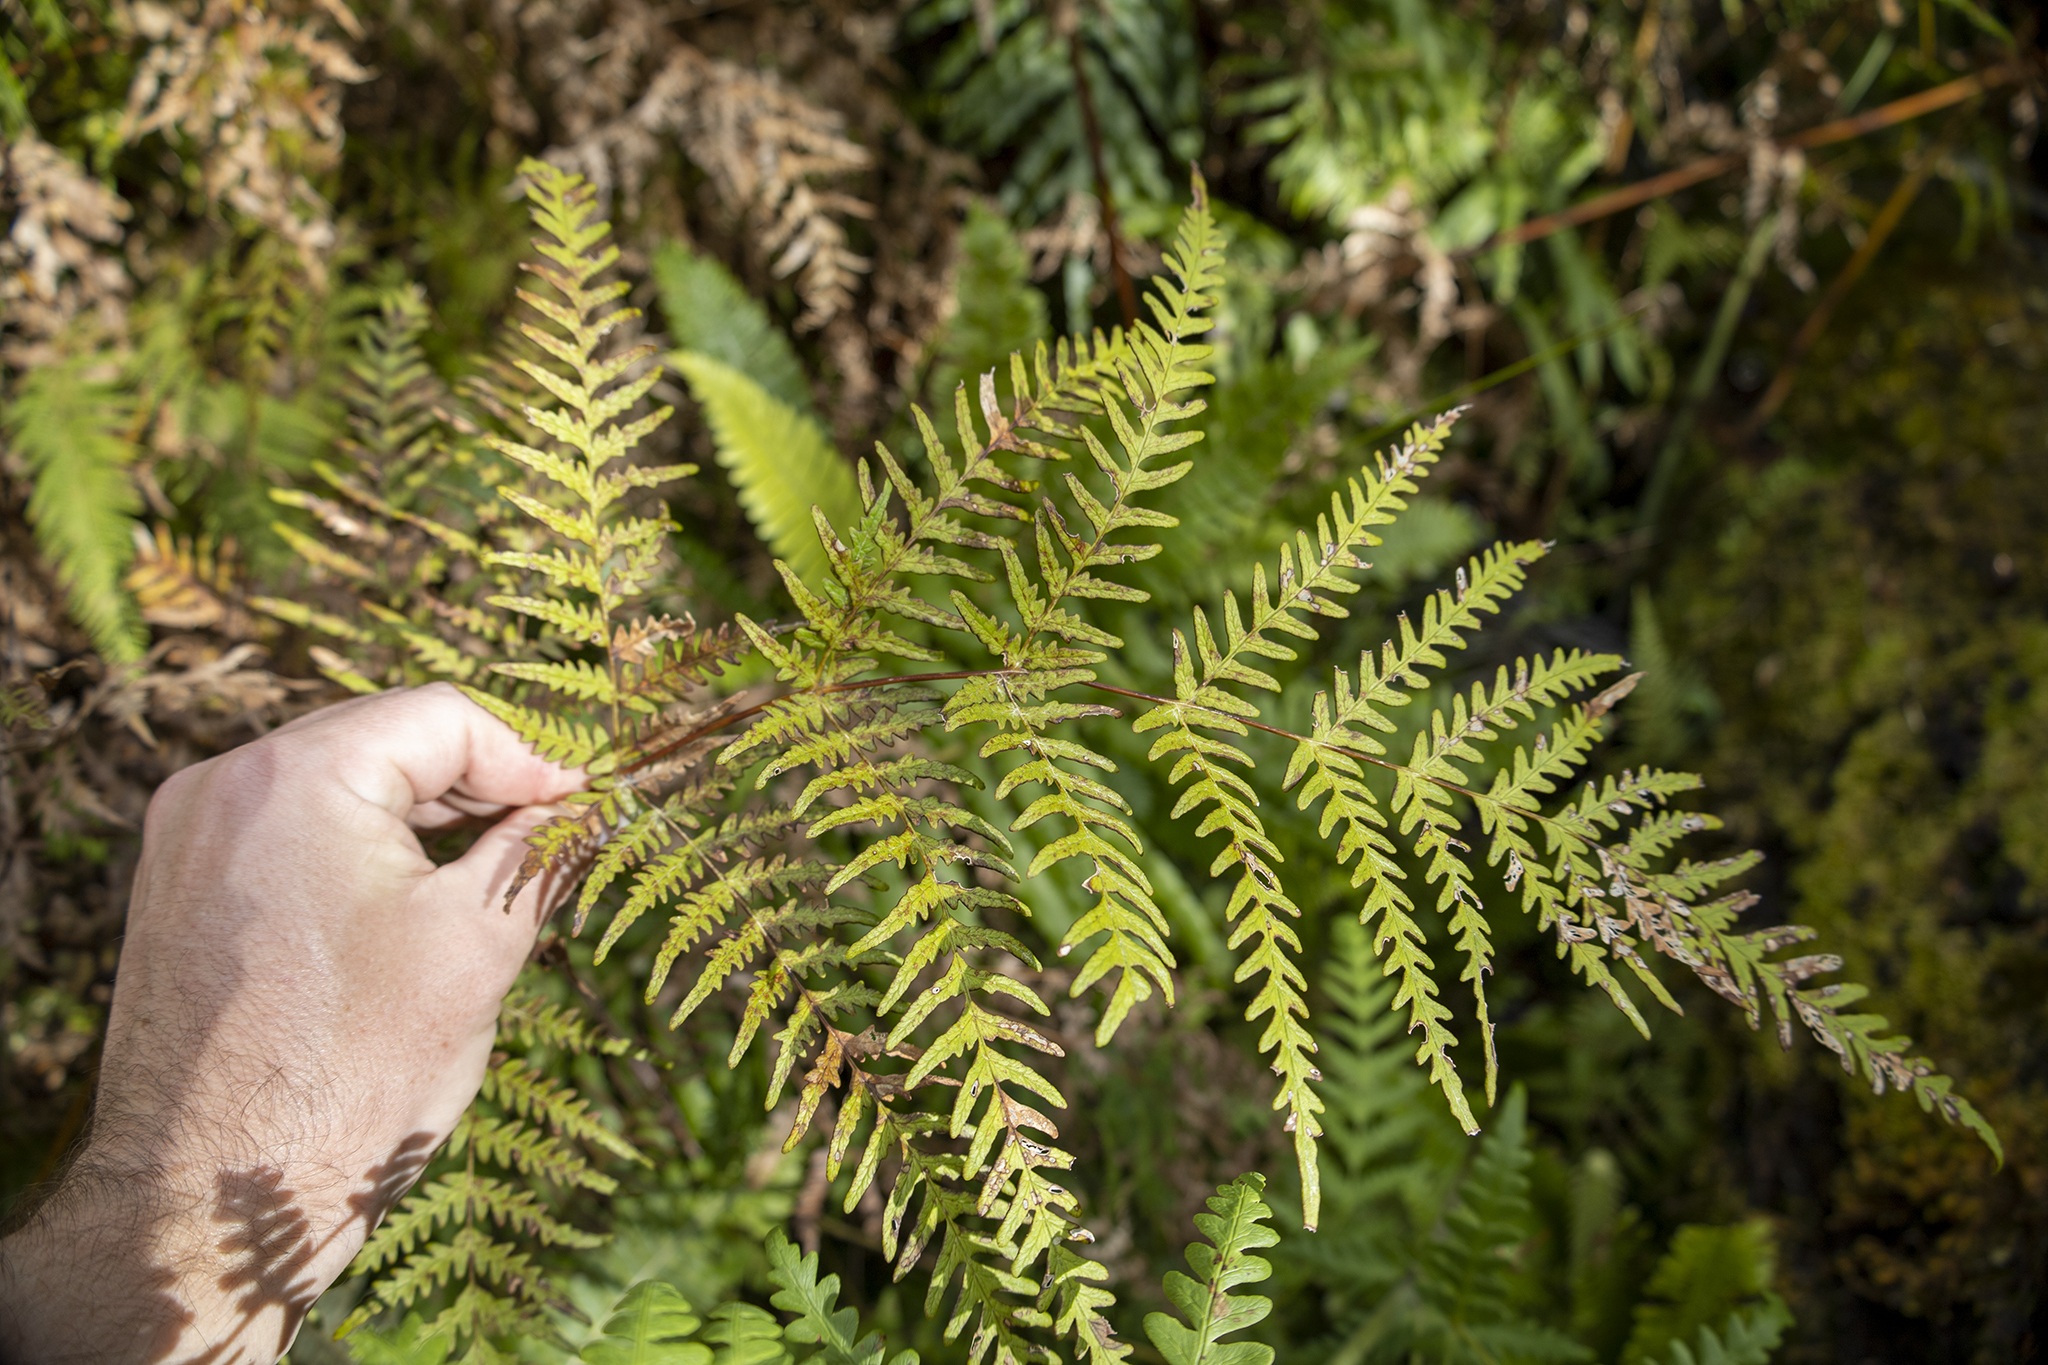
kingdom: Plantae
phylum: Tracheophyta
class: Polypodiopsida
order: Polypodiales
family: Dennstaedtiaceae
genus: Histiopteris
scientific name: Histiopteris incisa
